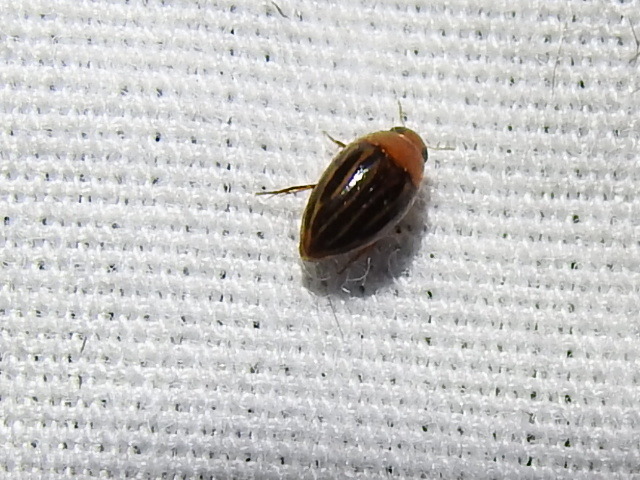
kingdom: Animalia
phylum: Arthropoda
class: Insecta
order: Coleoptera
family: Noteridae
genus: Suphisellus
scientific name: Suphisellus lineatus
